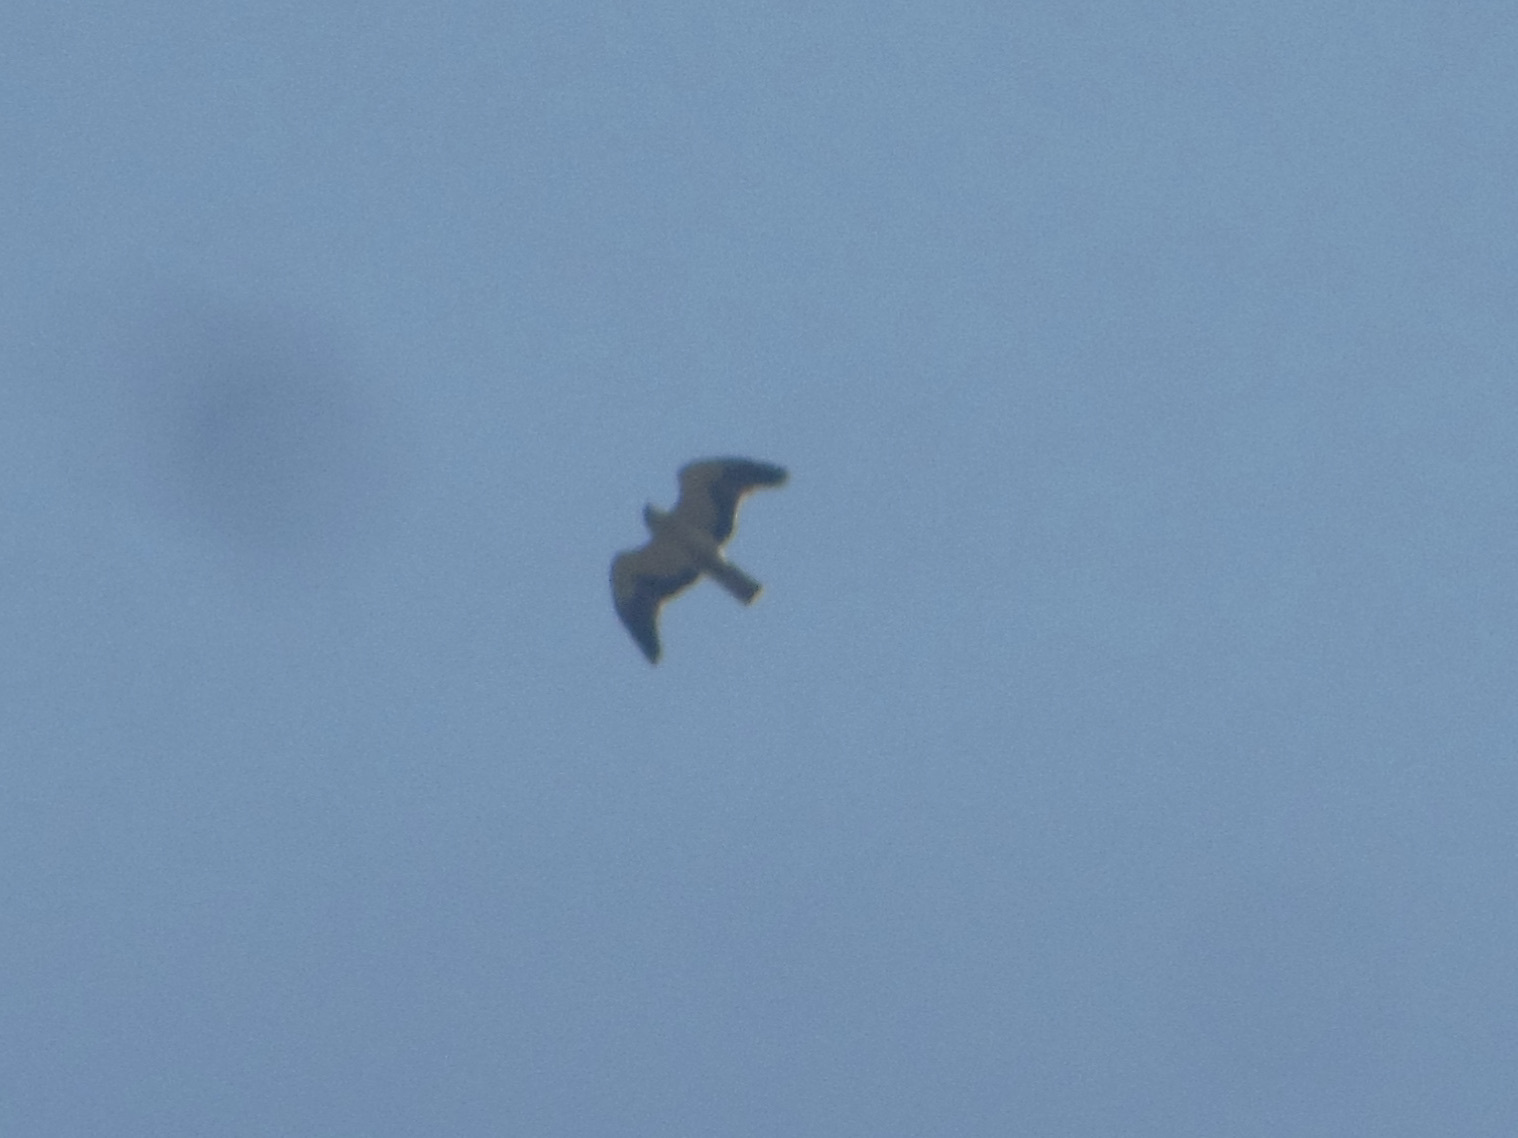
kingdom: Animalia
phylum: Chordata
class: Aves
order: Accipitriformes
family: Accipitridae
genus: Hieraaetus
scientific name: Hieraaetus pennatus
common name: Booted eagle
